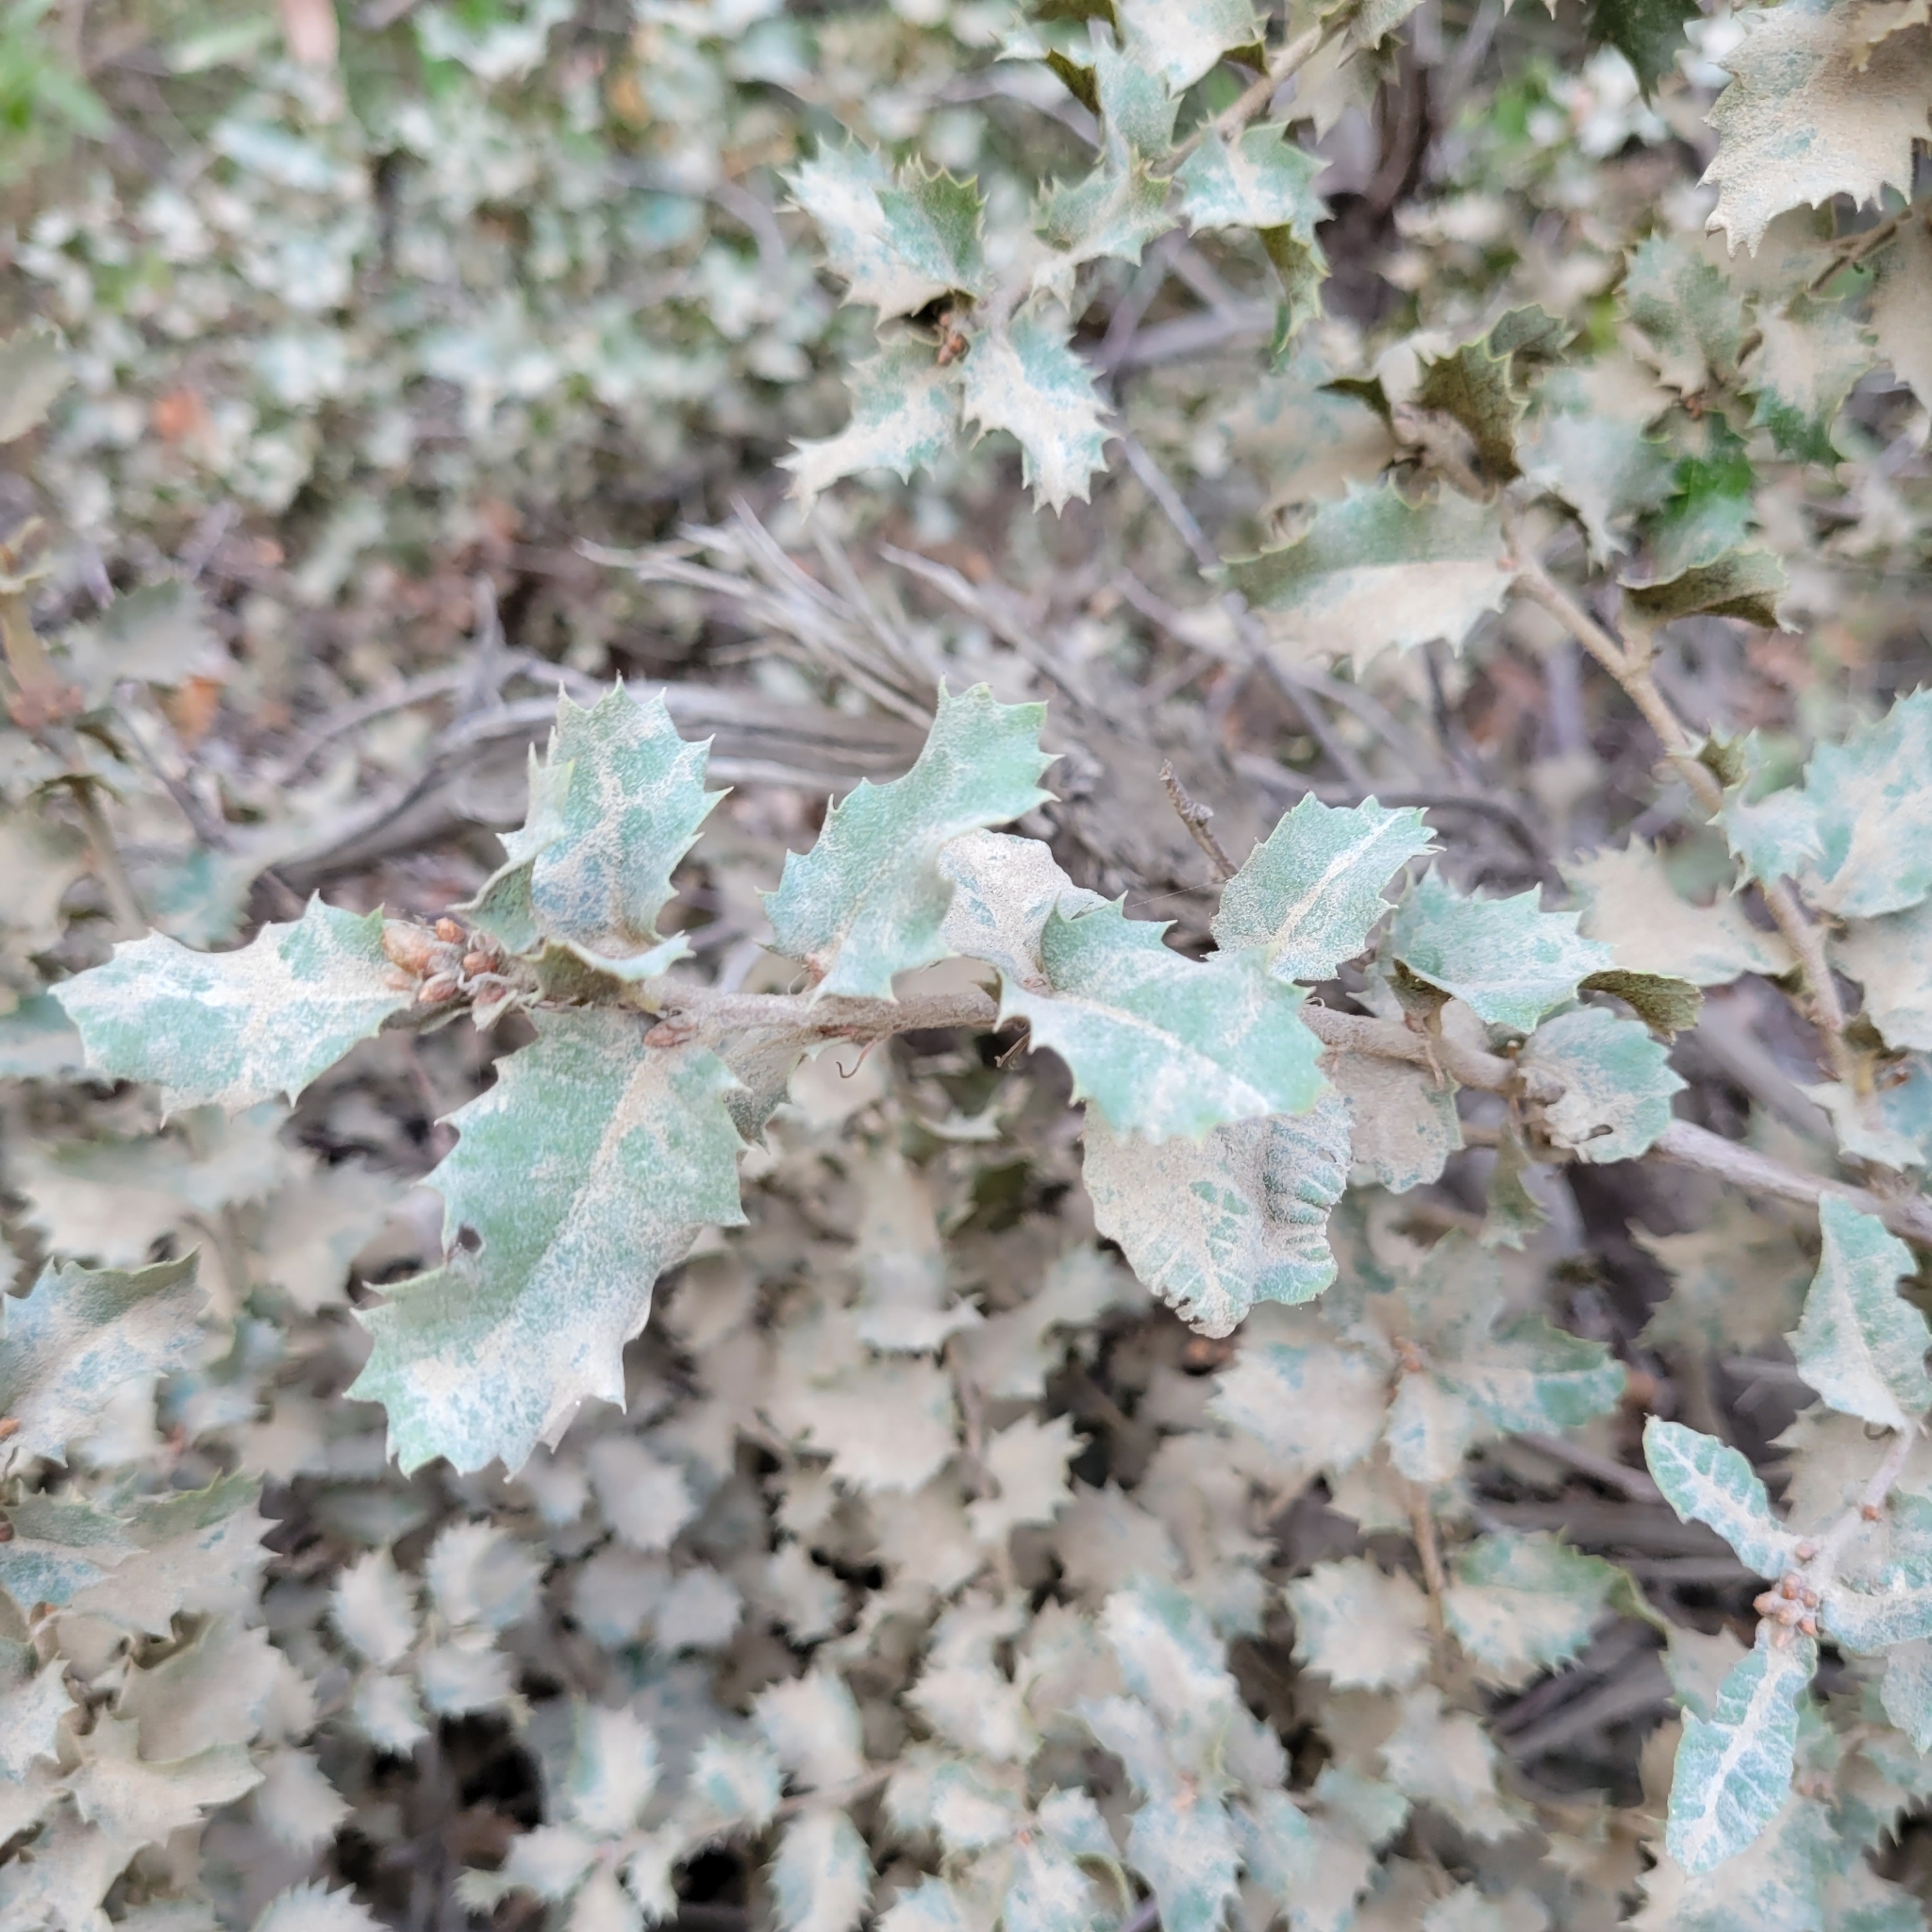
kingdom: Plantae
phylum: Tracheophyta
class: Magnoliopsida
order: Fagales
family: Fagaceae
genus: Quercus
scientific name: Quercus chrysolepis
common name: Canyon live oak
